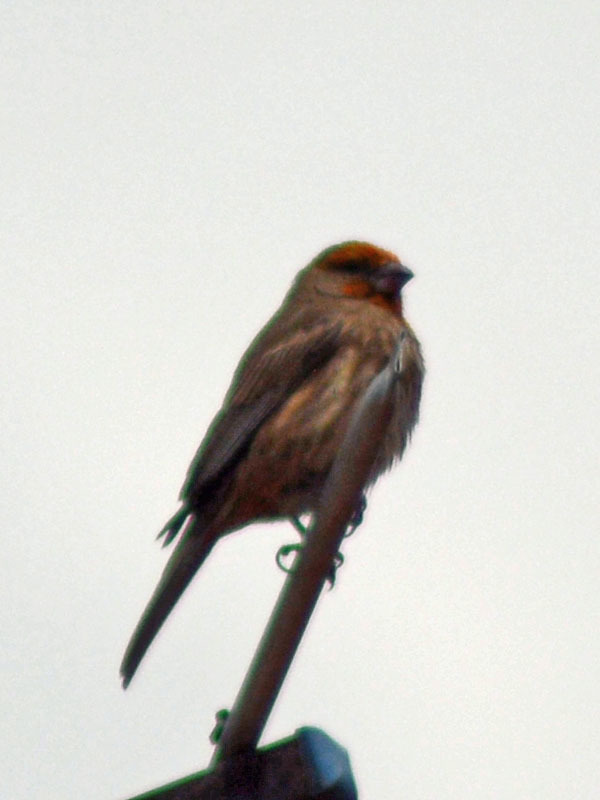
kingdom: Animalia
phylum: Chordata
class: Aves
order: Passeriformes
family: Fringillidae
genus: Haemorhous
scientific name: Haemorhous mexicanus
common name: House finch
